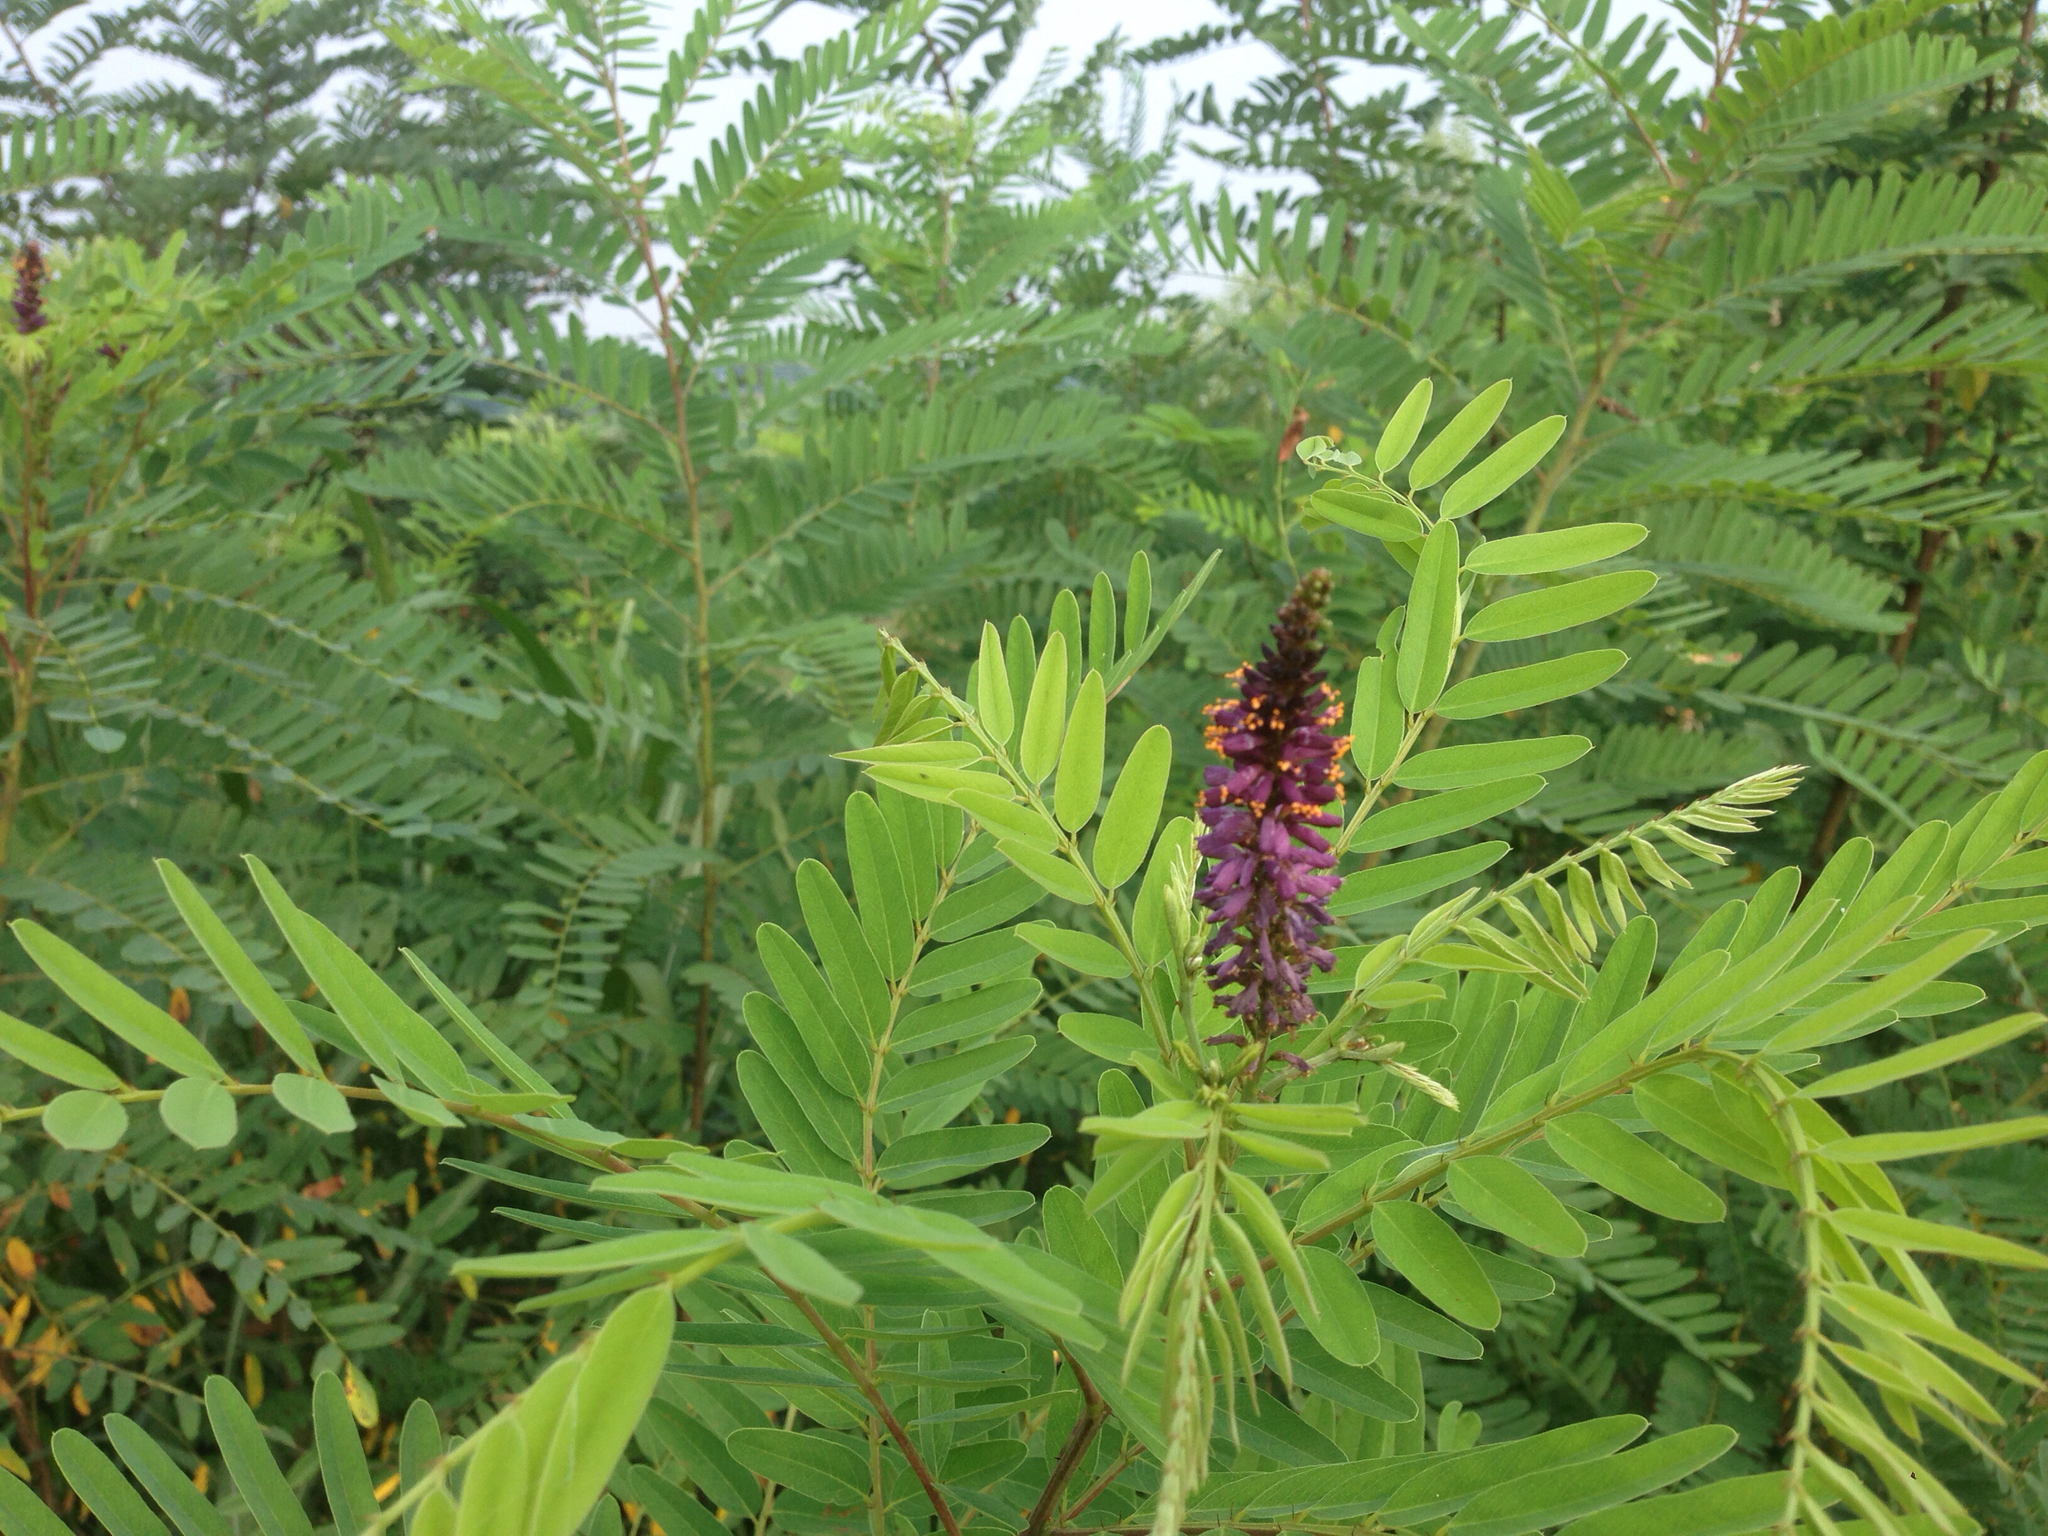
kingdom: Plantae
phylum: Tracheophyta
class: Magnoliopsida
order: Fabales
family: Fabaceae
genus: Amorpha
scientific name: Amorpha fruticosa
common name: False indigo
